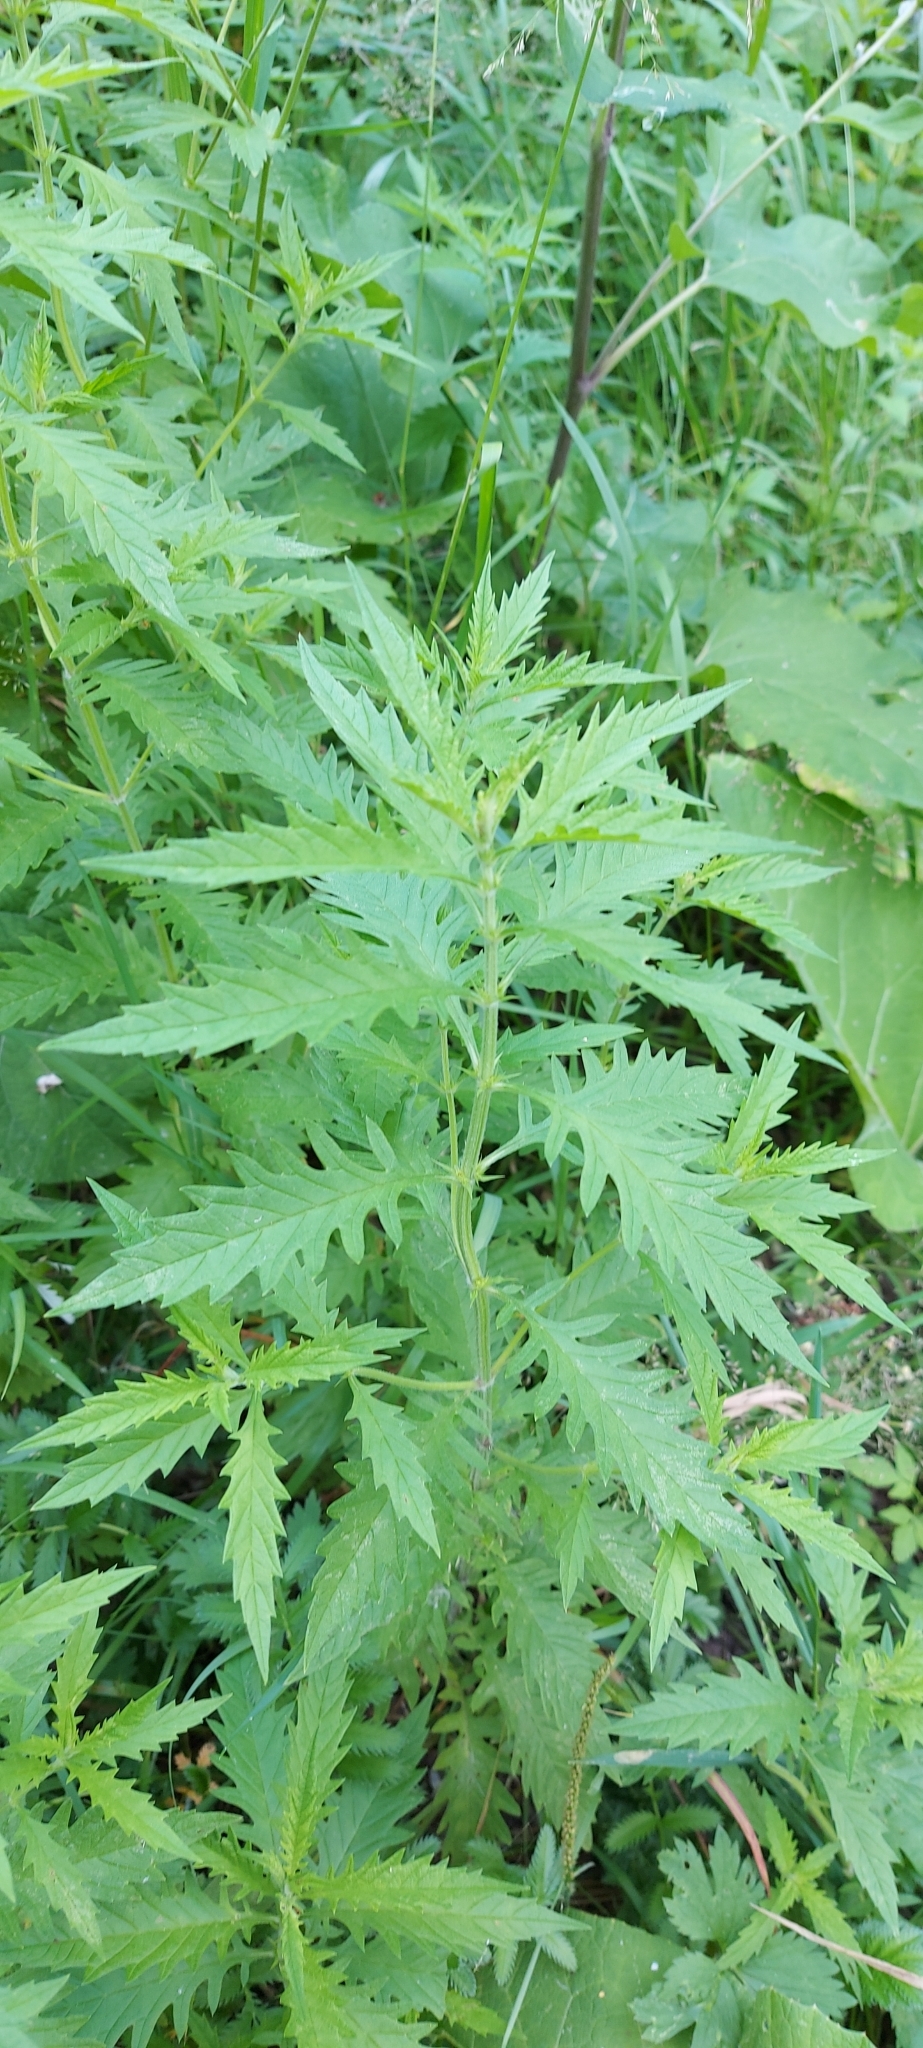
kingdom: Plantae
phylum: Tracheophyta
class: Magnoliopsida
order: Lamiales
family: Lamiaceae
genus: Lycopus
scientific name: Lycopus europaeus
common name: European bugleweed
